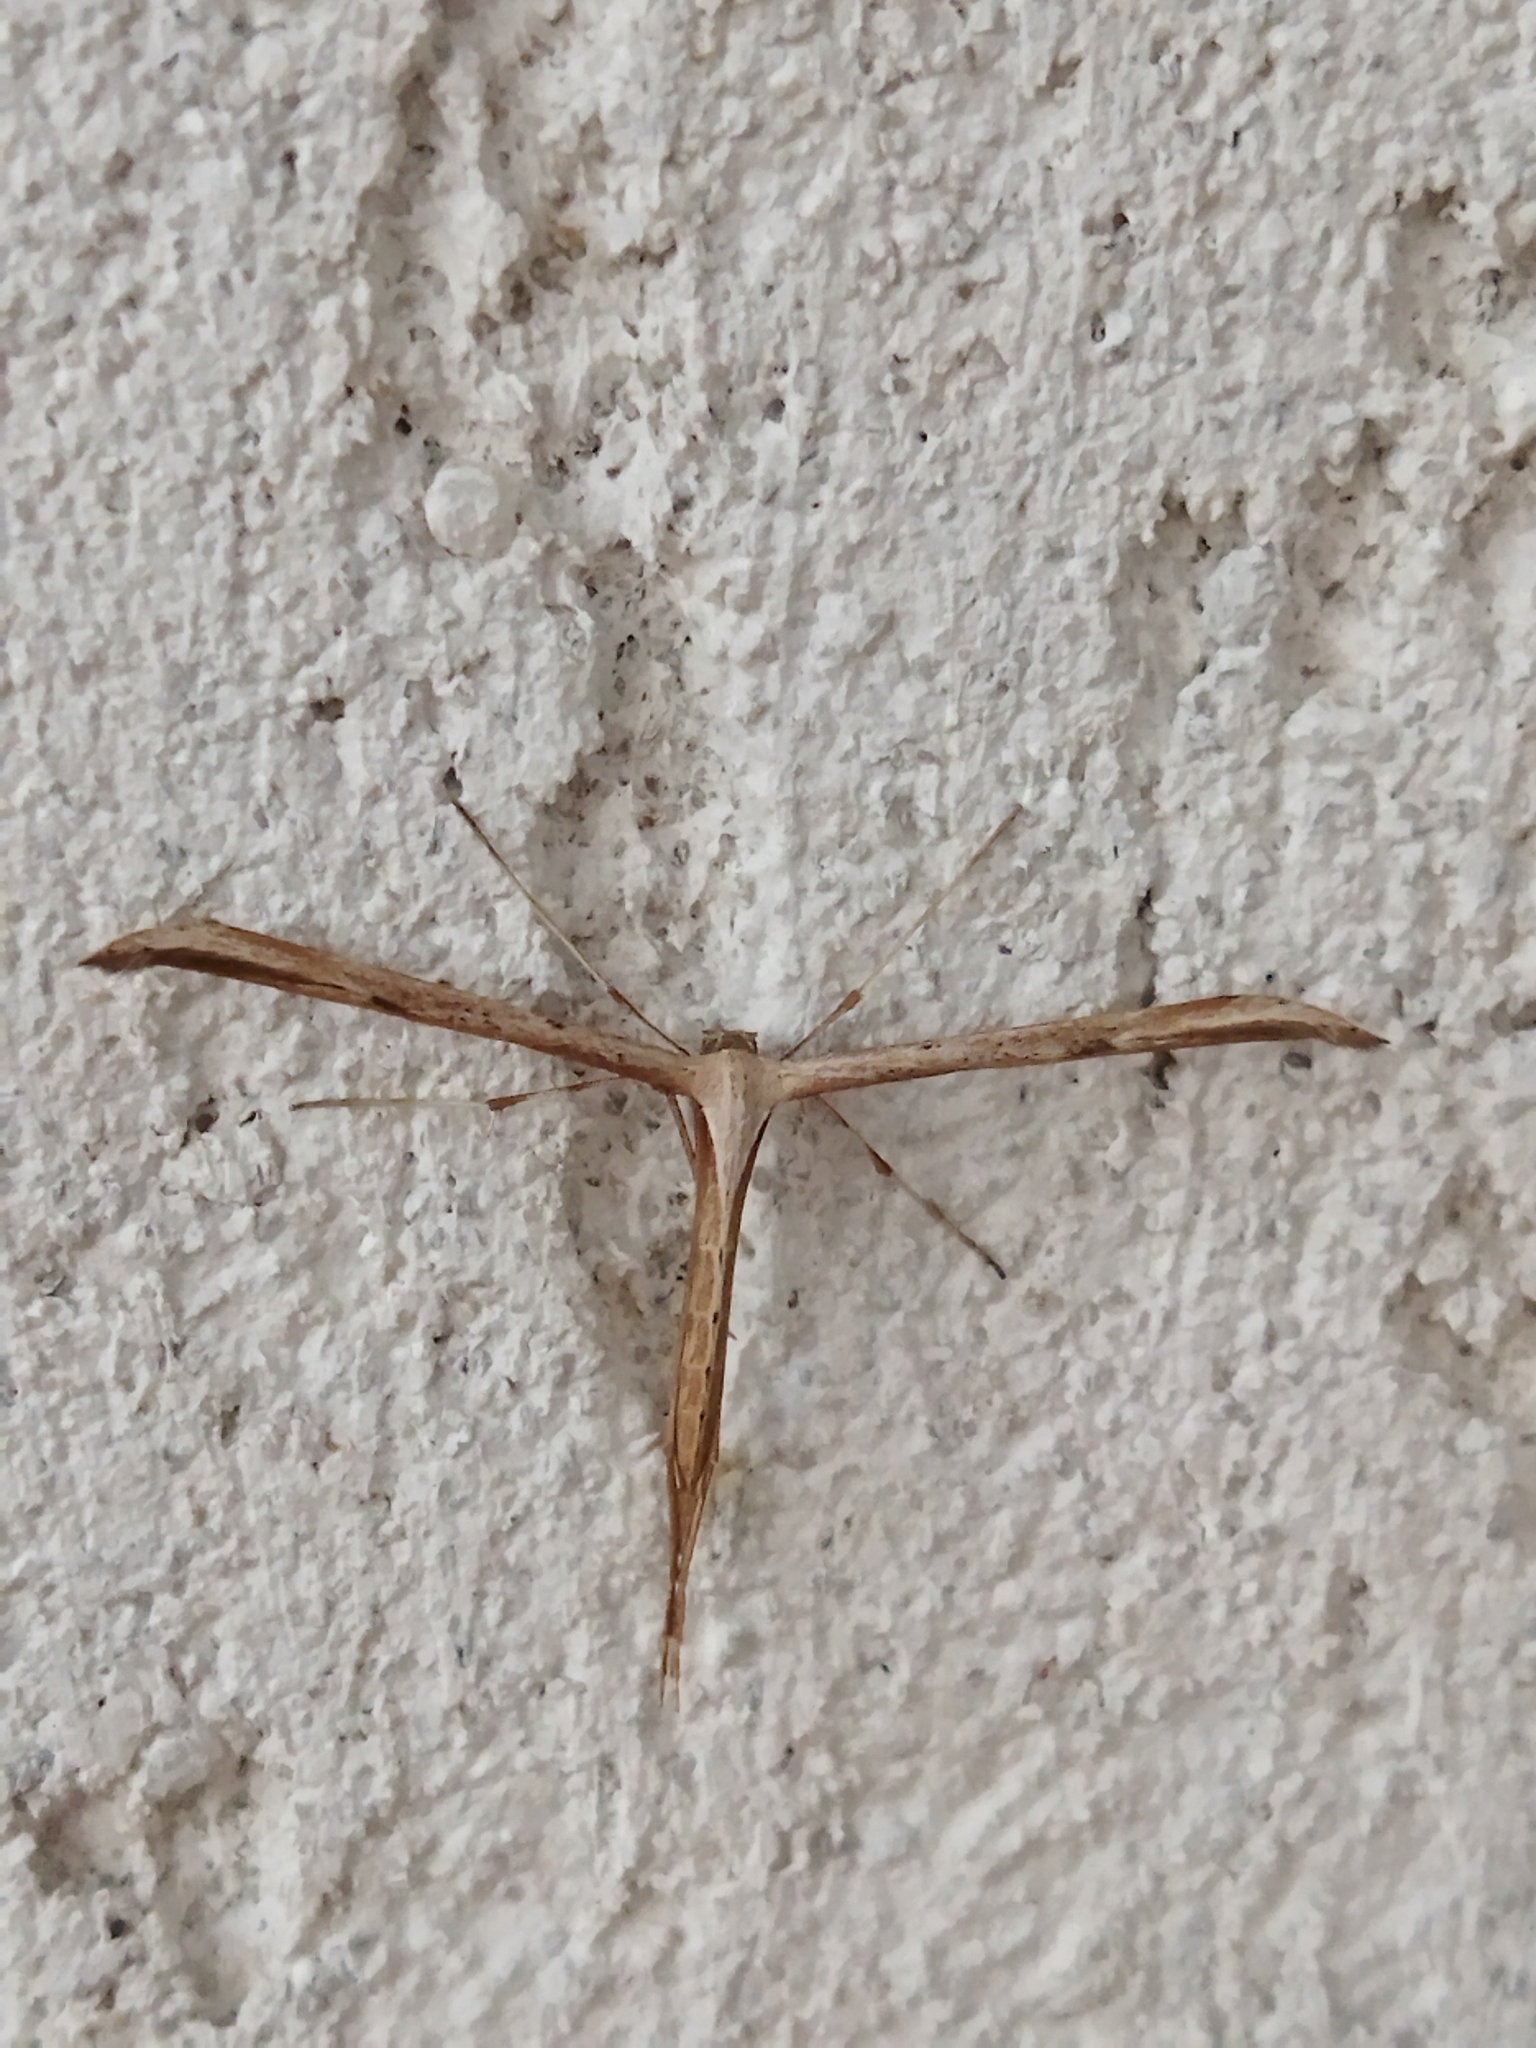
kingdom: Animalia
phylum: Arthropoda
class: Insecta
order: Lepidoptera
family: Pterophoridae
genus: Emmelina
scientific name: Emmelina monodactyla
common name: Common plume
